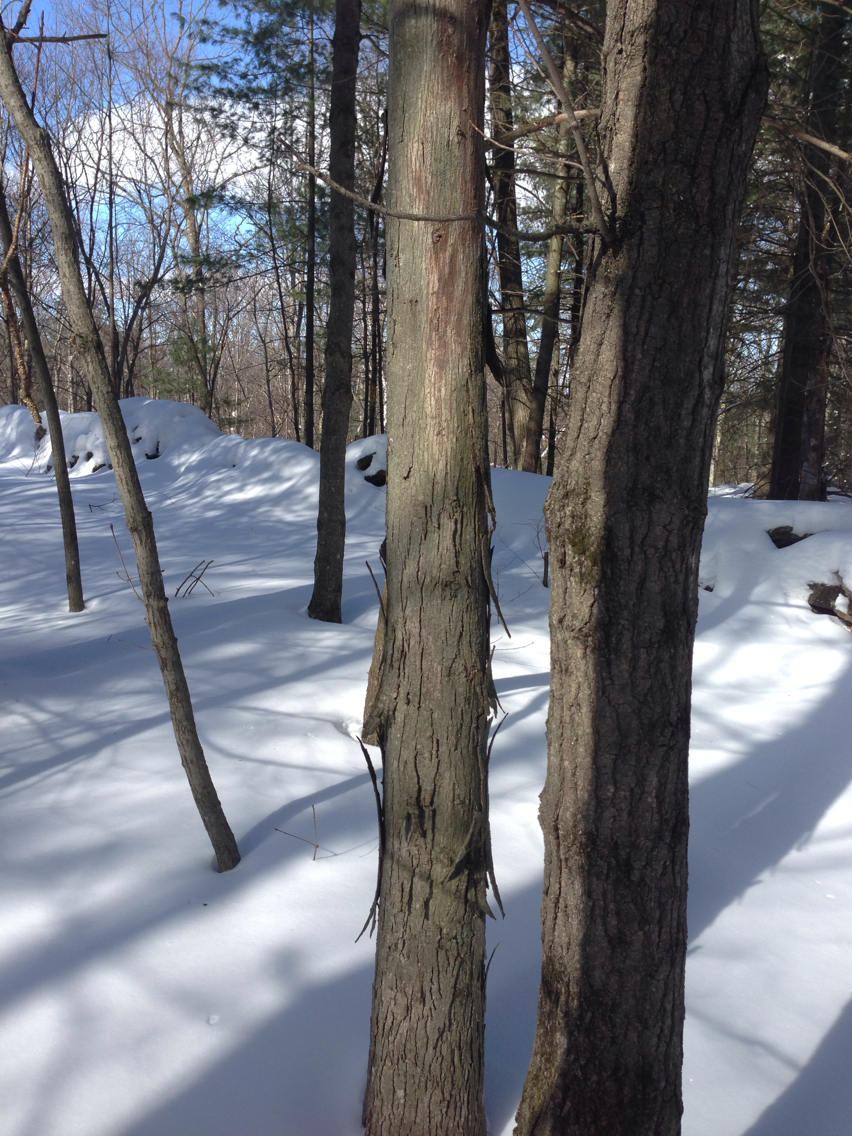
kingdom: Plantae
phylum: Tracheophyta
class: Magnoliopsida
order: Fagales
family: Juglandaceae
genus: Carya
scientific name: Carya ovata
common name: Shagbark hickory
